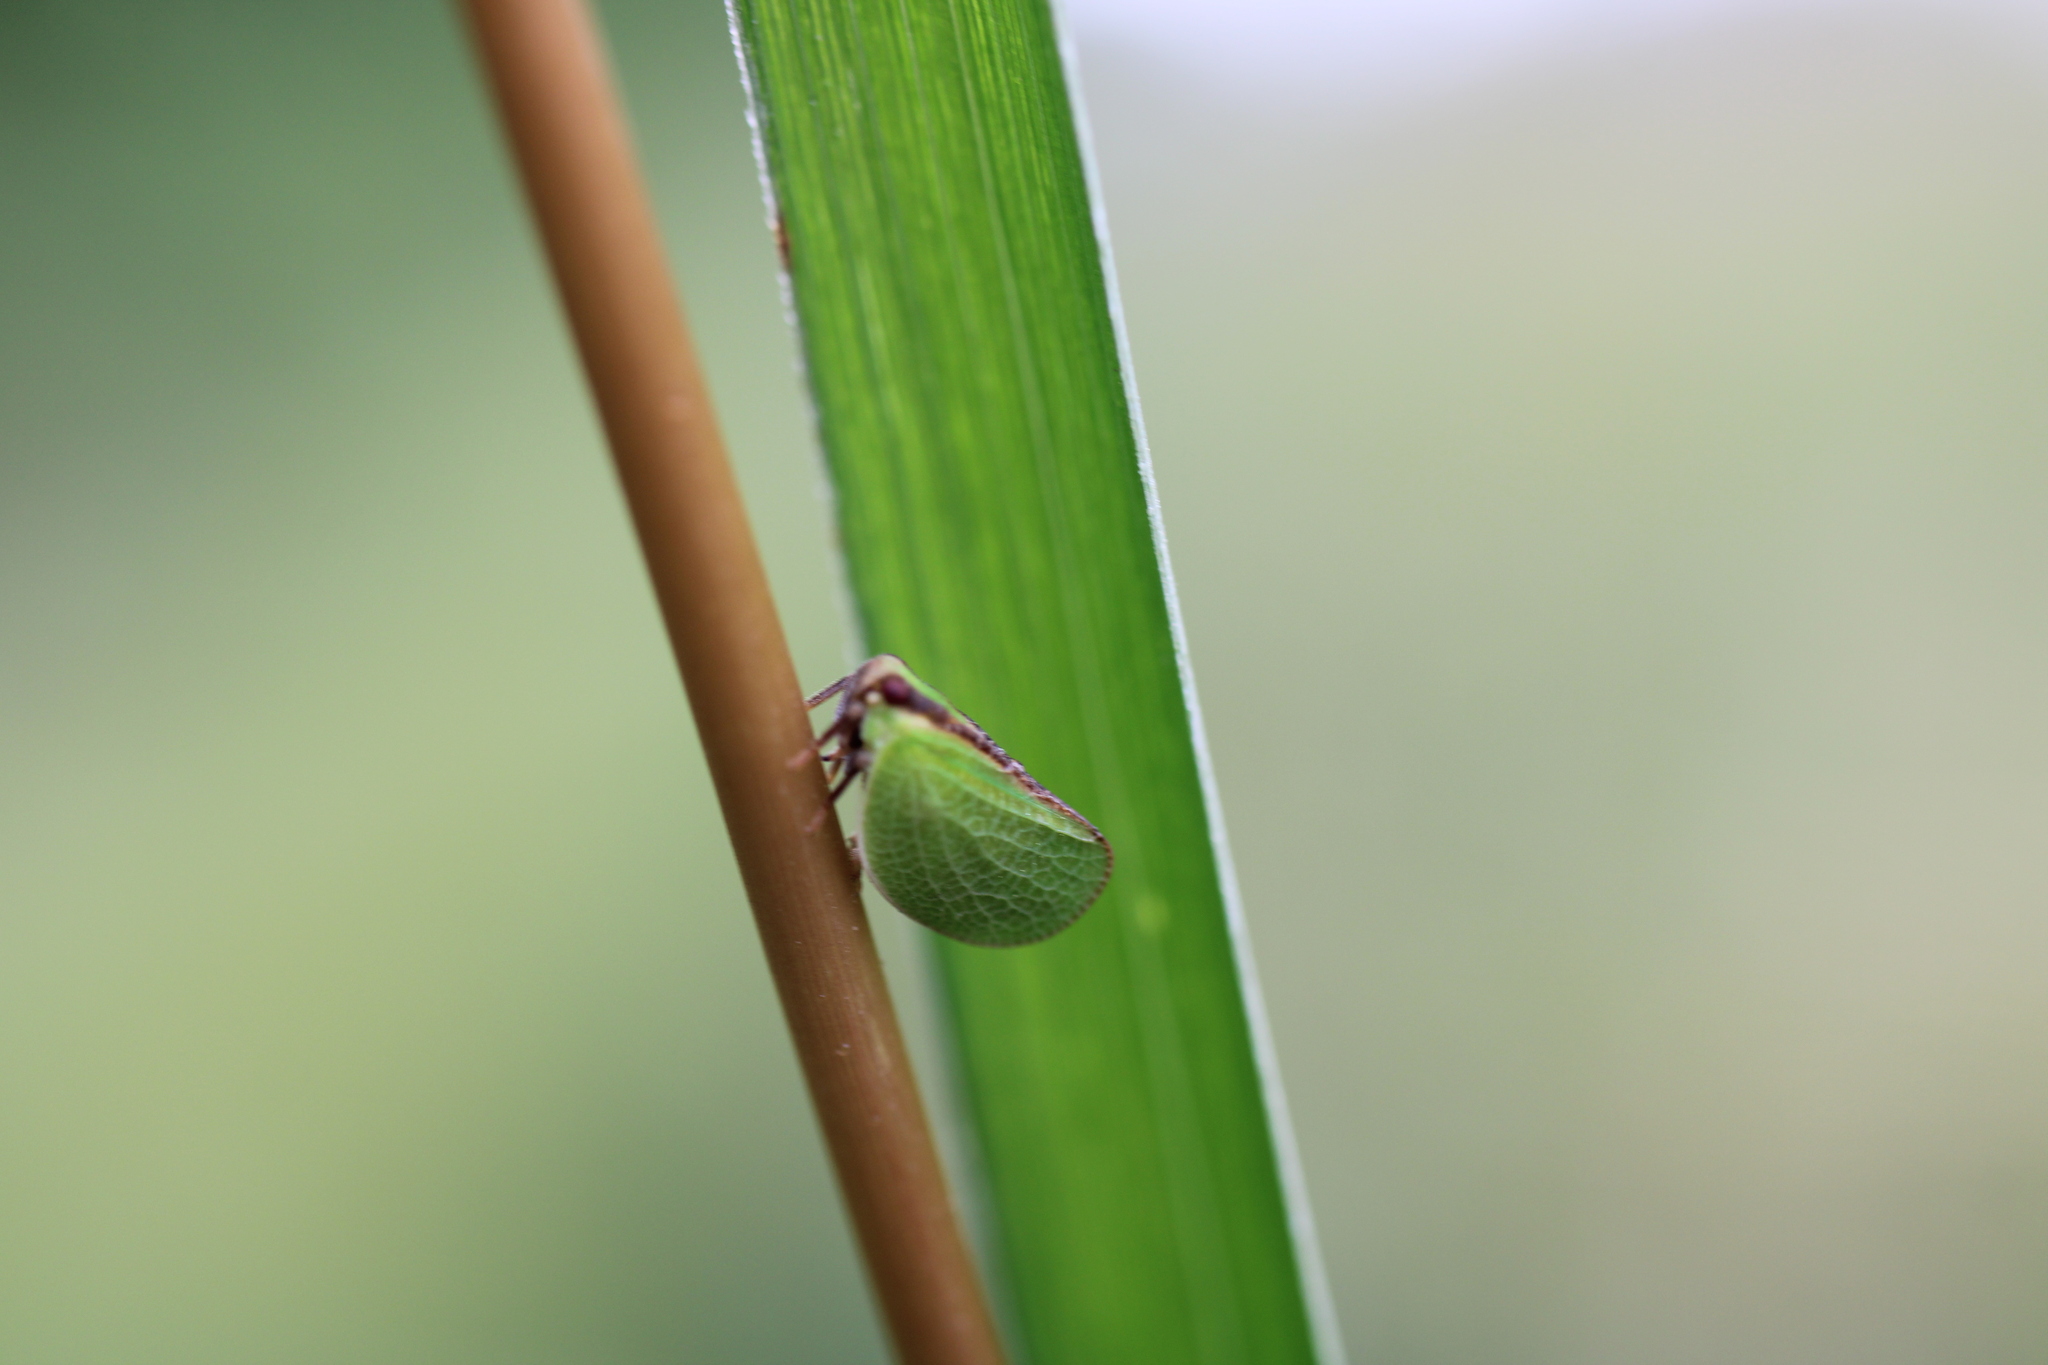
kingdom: Animalia
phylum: Arthropoda
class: Insecta
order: Hemiptera
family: Acanaloniidae
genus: Acanalonia
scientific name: Acanalonia bivittata
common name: Two-striped planthopper
